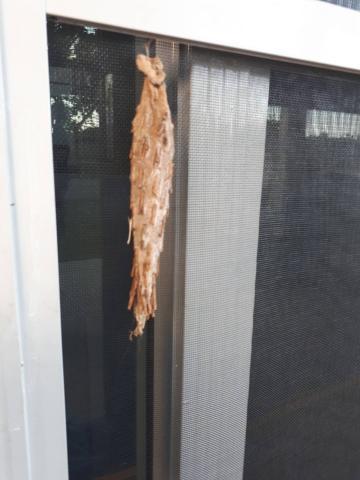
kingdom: Animalia
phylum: Arthropoda
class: Insecta
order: Lepidoptera
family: Psychidae
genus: Metura
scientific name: Metura elongatus
